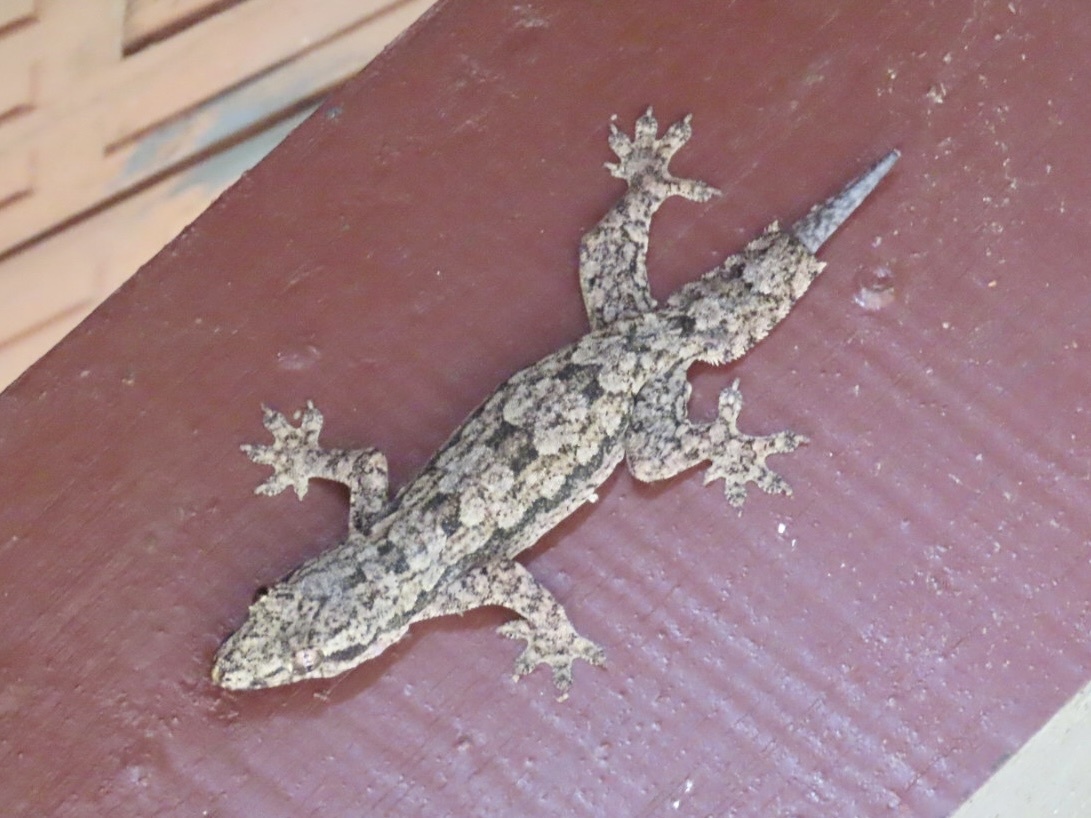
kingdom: Animalia
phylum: Chordata
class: Squamata
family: Gekkonidae
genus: Hemidactylus
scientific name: Hemidactylus platyurus
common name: Flat-tailed house gecko
